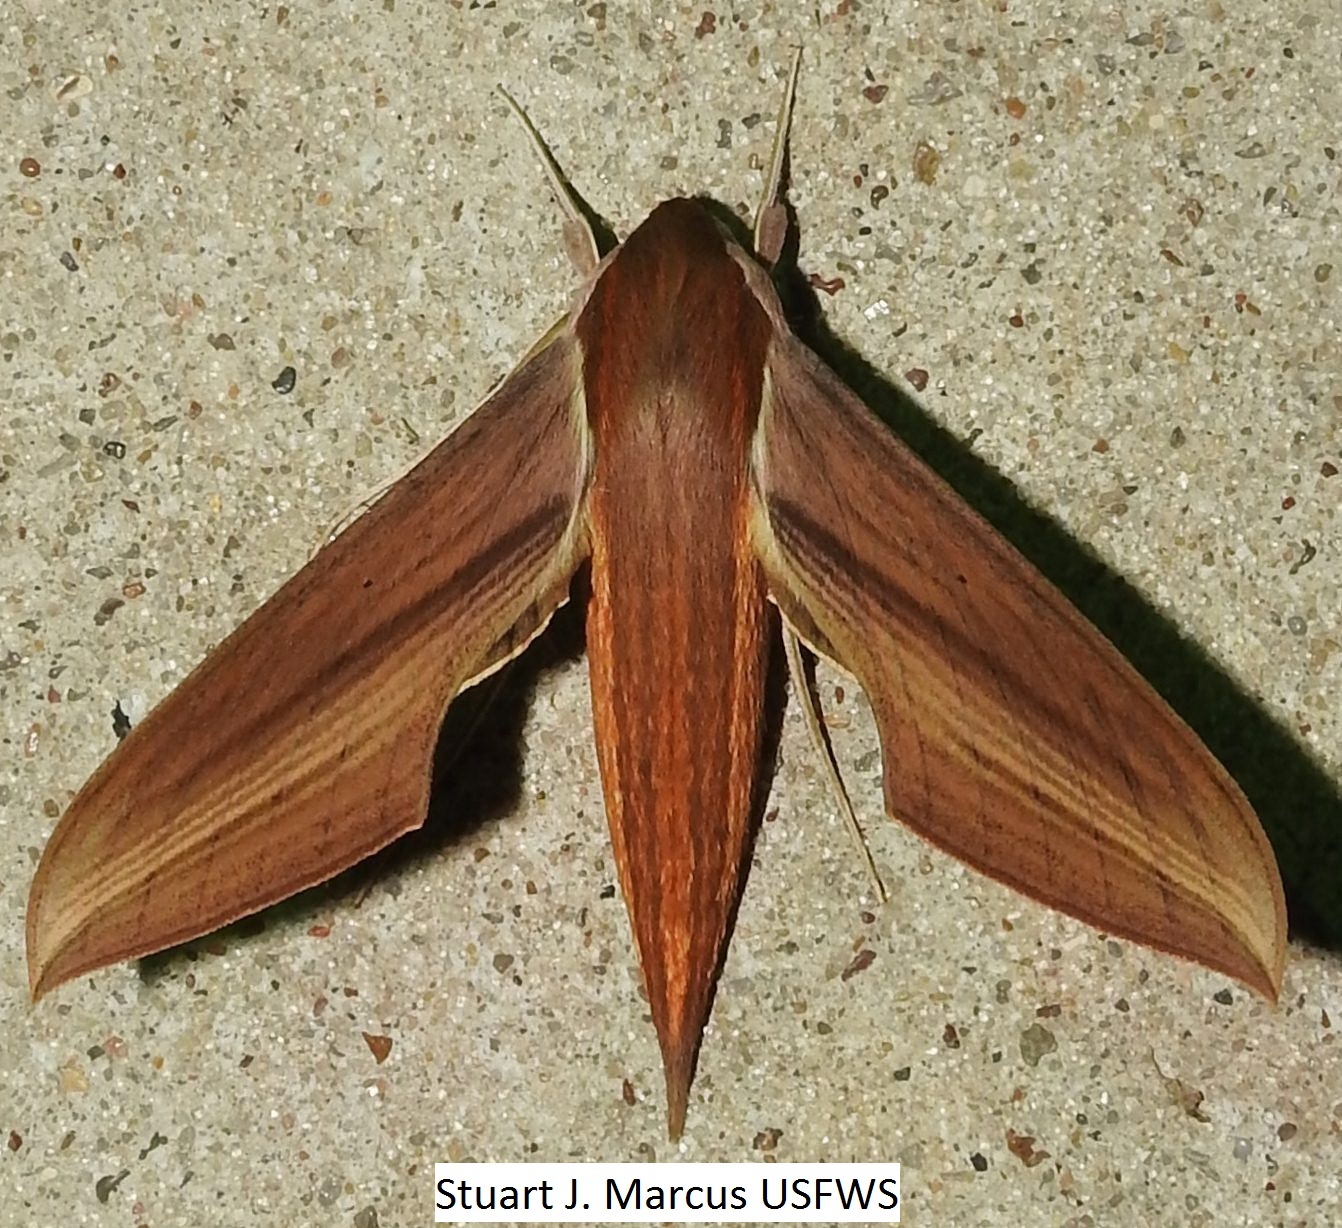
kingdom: Animalia
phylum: Arthropoda
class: Insecta
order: Lepidoptera
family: Sphingidae
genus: Xylophanes
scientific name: Xylophanes tersa
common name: Tersa sphinx
